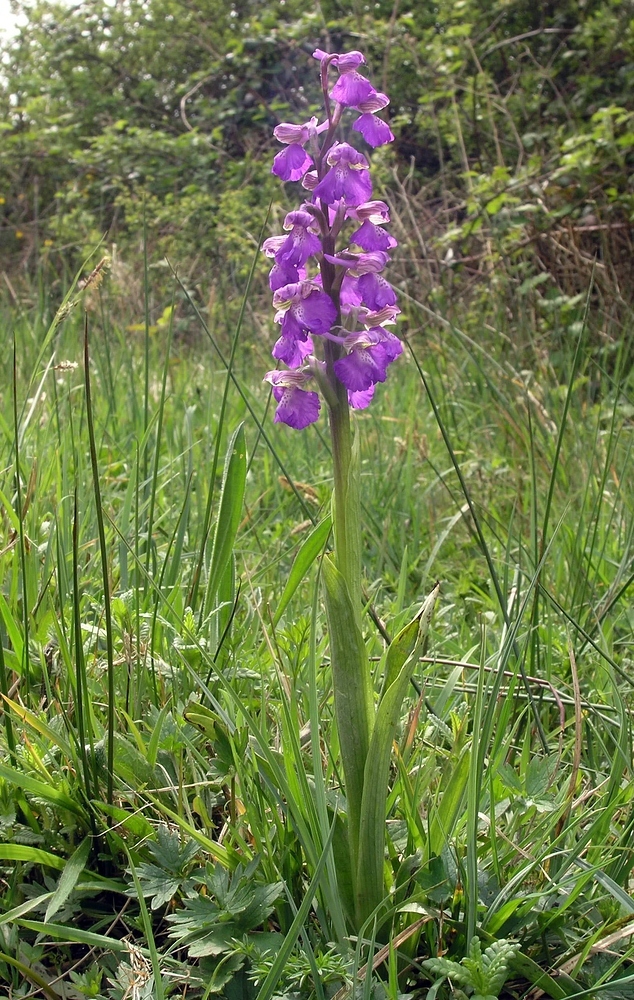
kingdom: Plantae
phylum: Tracheophyta
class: Liliopsida
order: Asparagales
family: Orchidaceae
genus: Anacamptis
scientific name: Anacamptis morio
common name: Green-winged orchid
